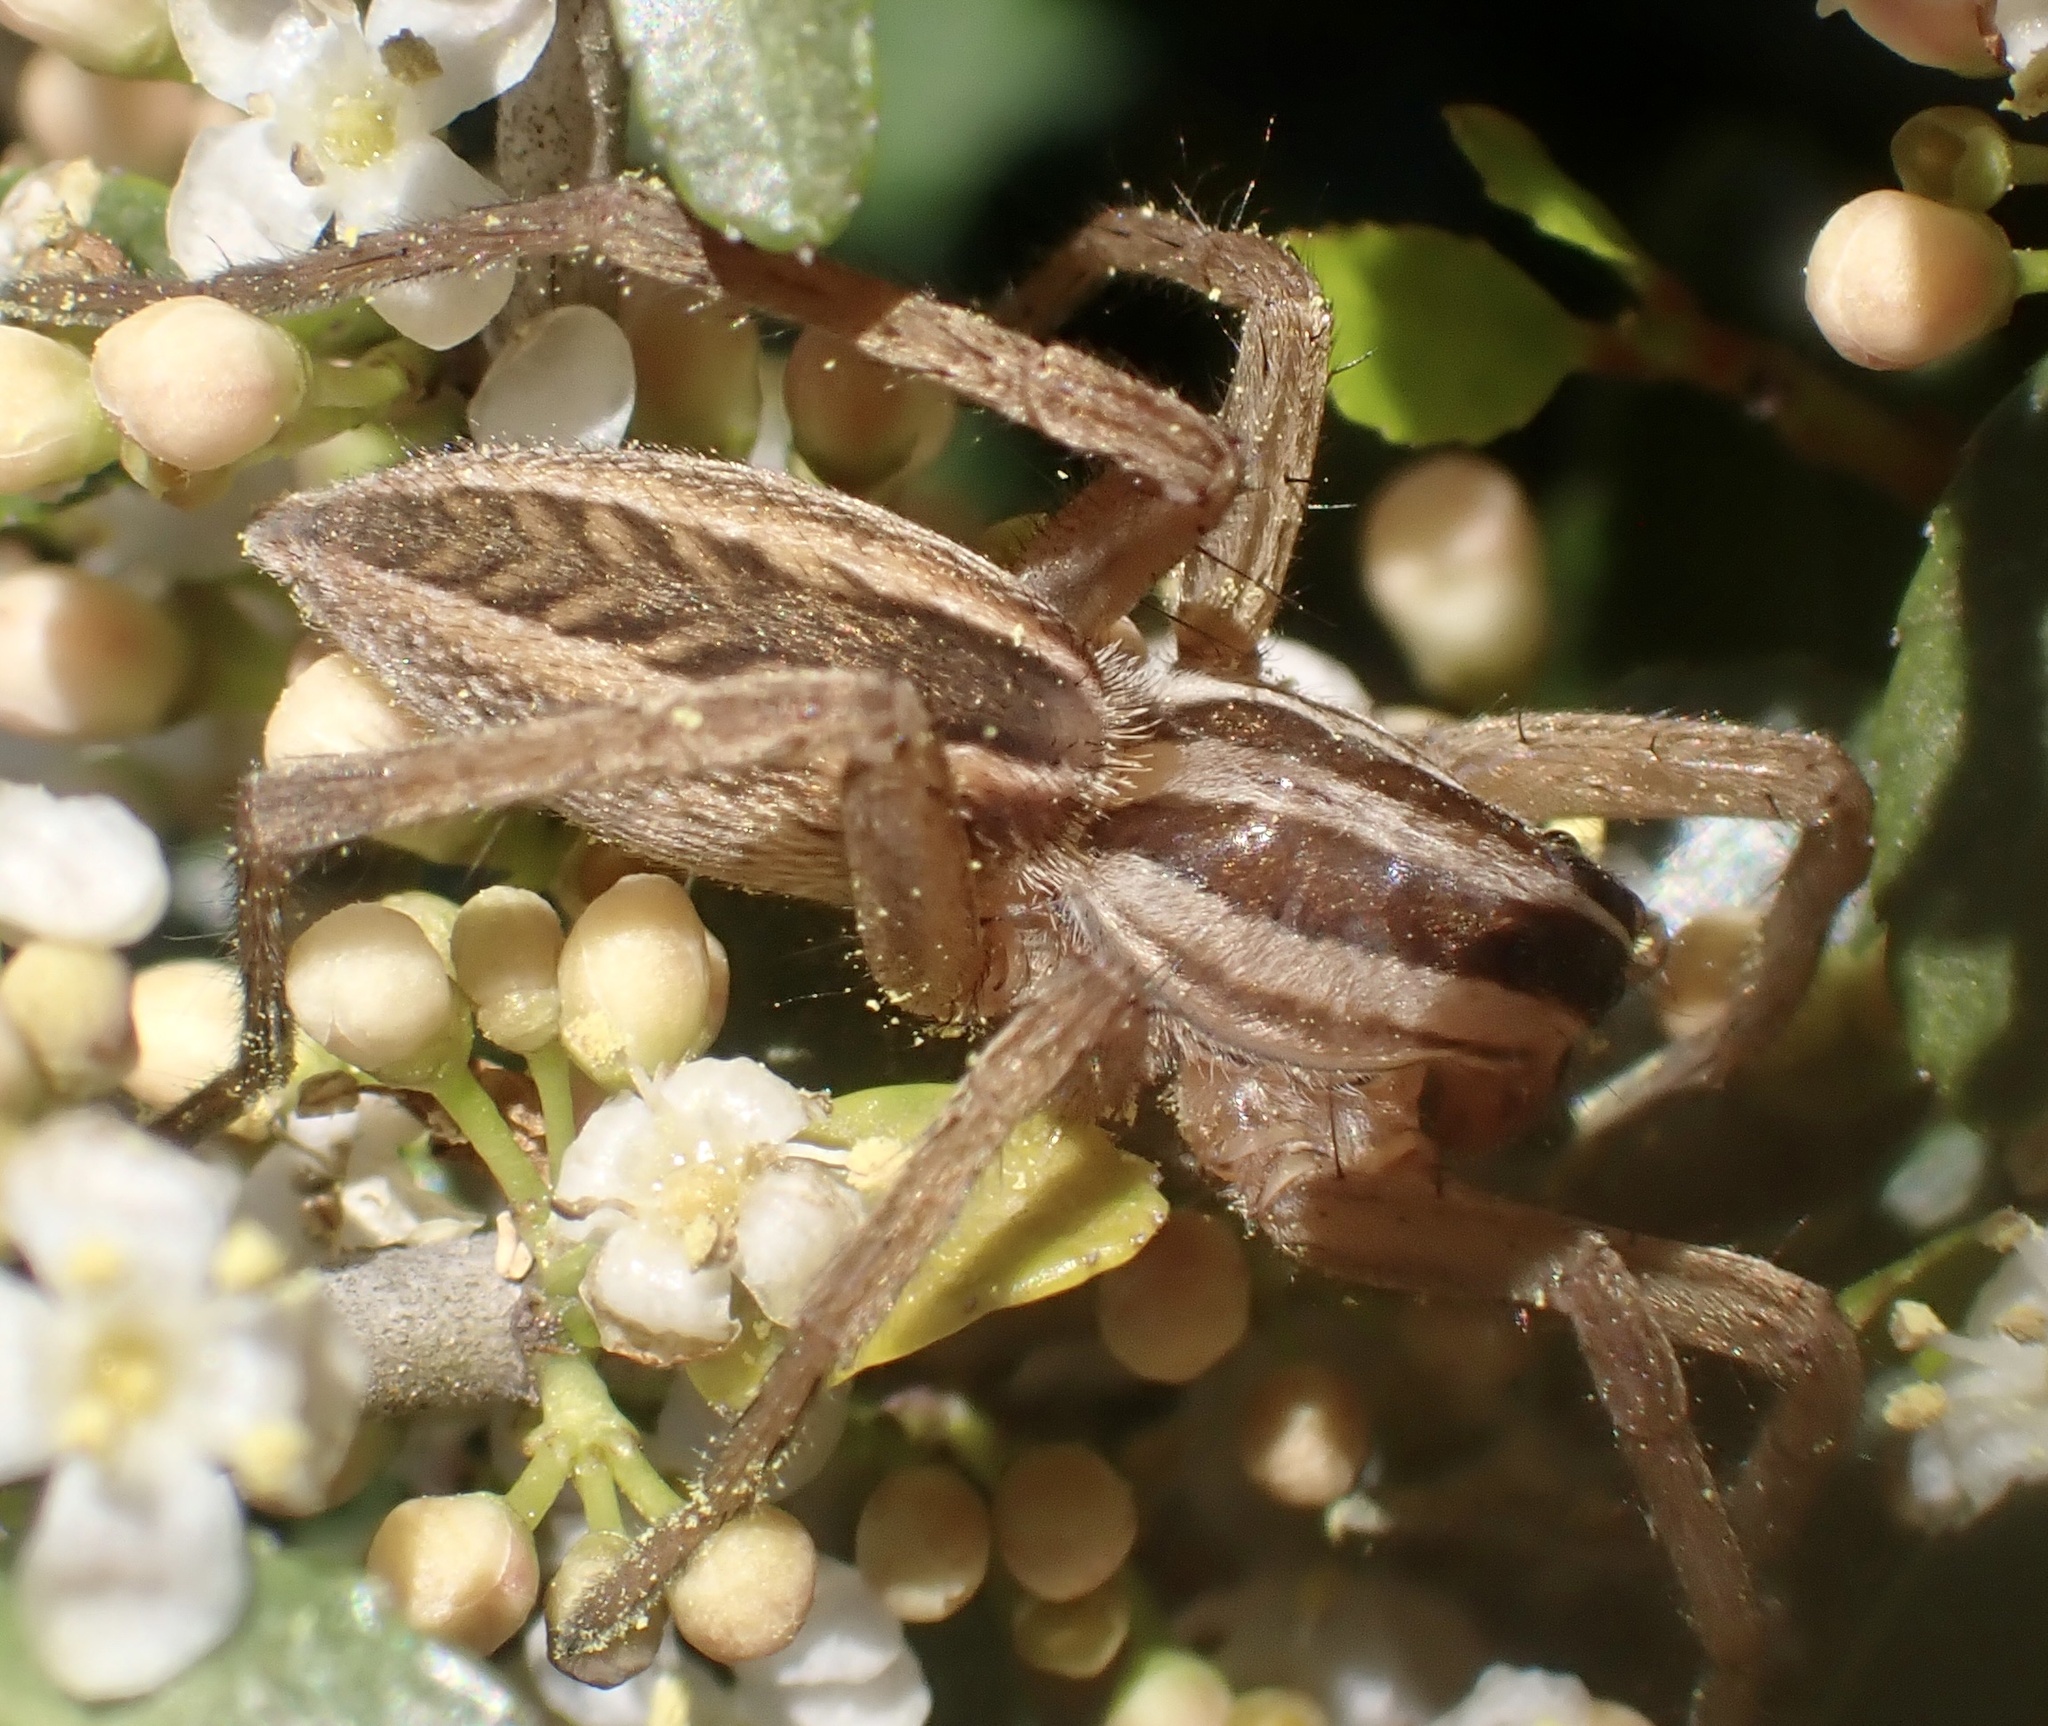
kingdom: Animalia
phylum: Arthropoda
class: Arachnida
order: Araneae
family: Lycosidae
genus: Rabidosa
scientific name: Rabidosa rabida
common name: Rabid wolf spider
